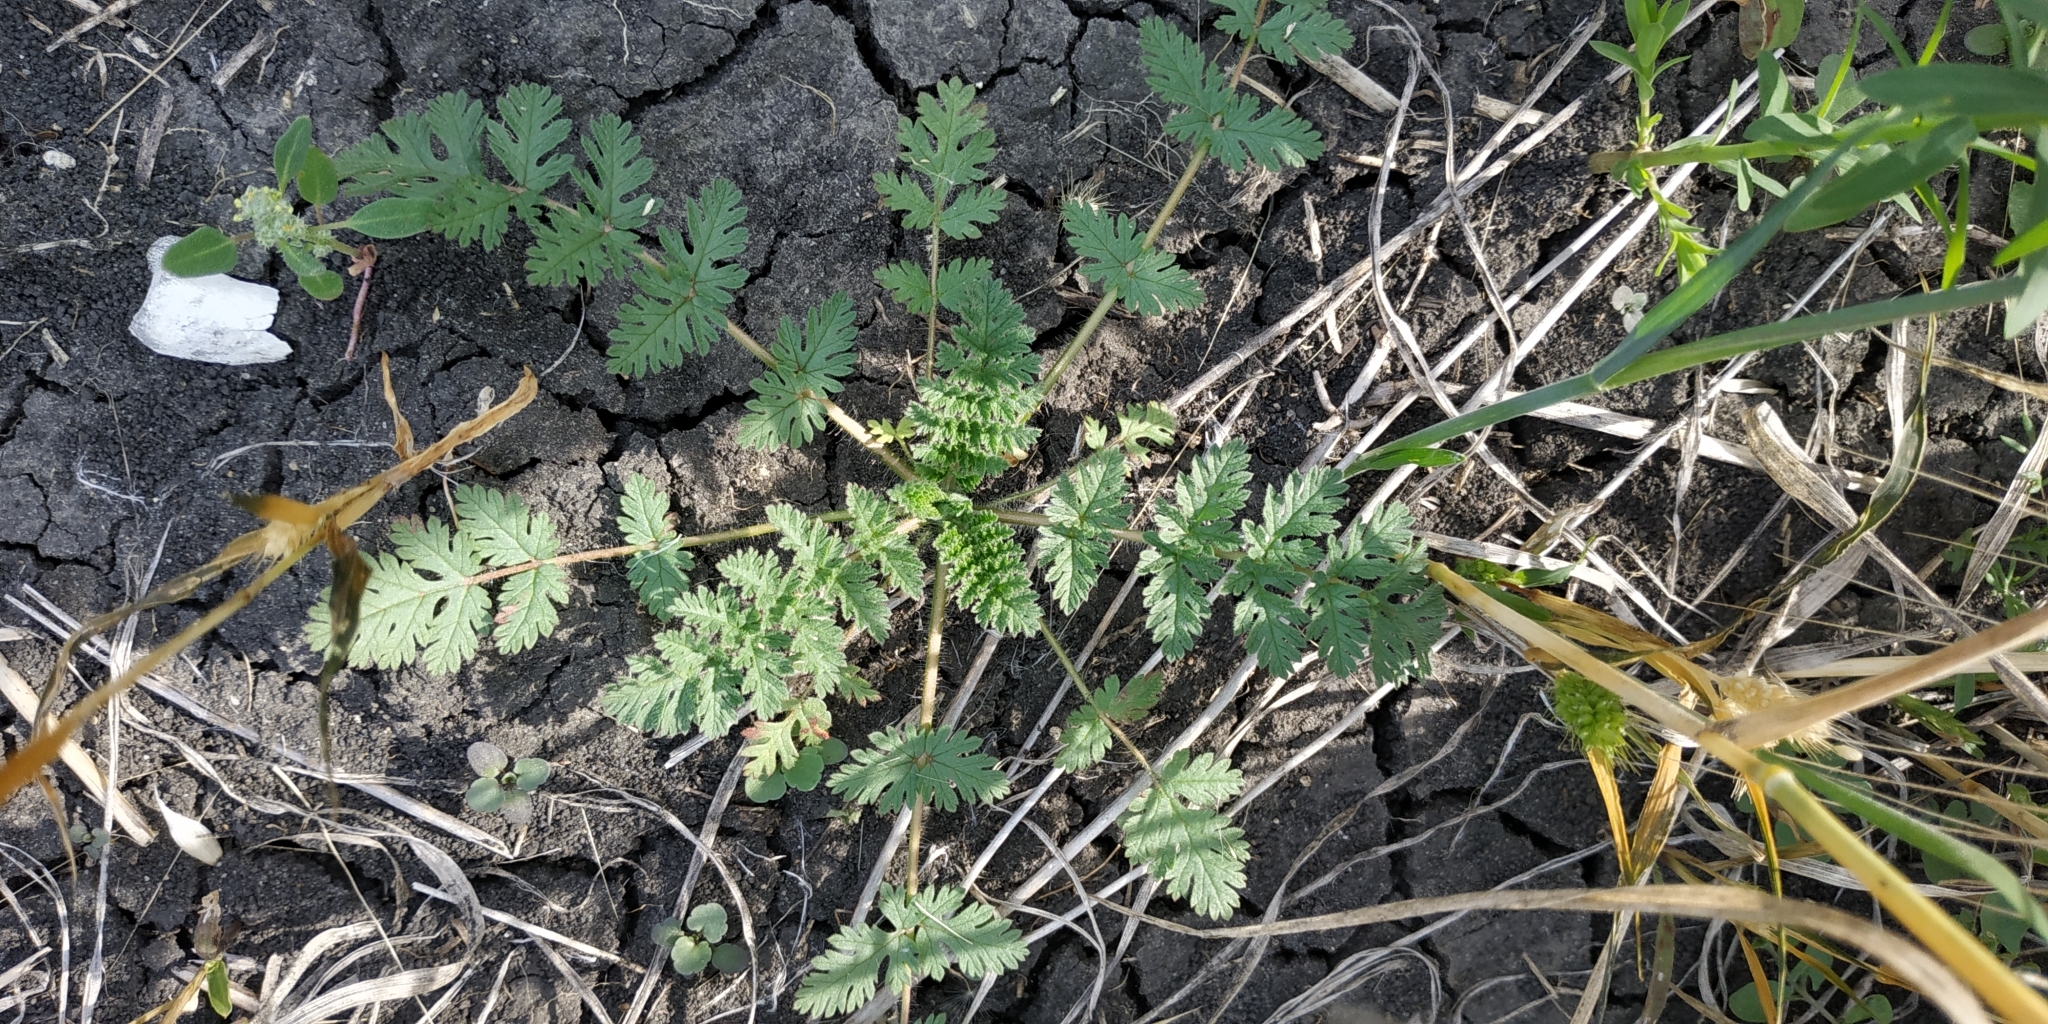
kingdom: Plantae
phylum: Tracheophyta
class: Magnoliopsida
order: Geraniales
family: Geraniaceae
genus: Erodium
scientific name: Erodium cicutarium
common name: Common stork's-bill
